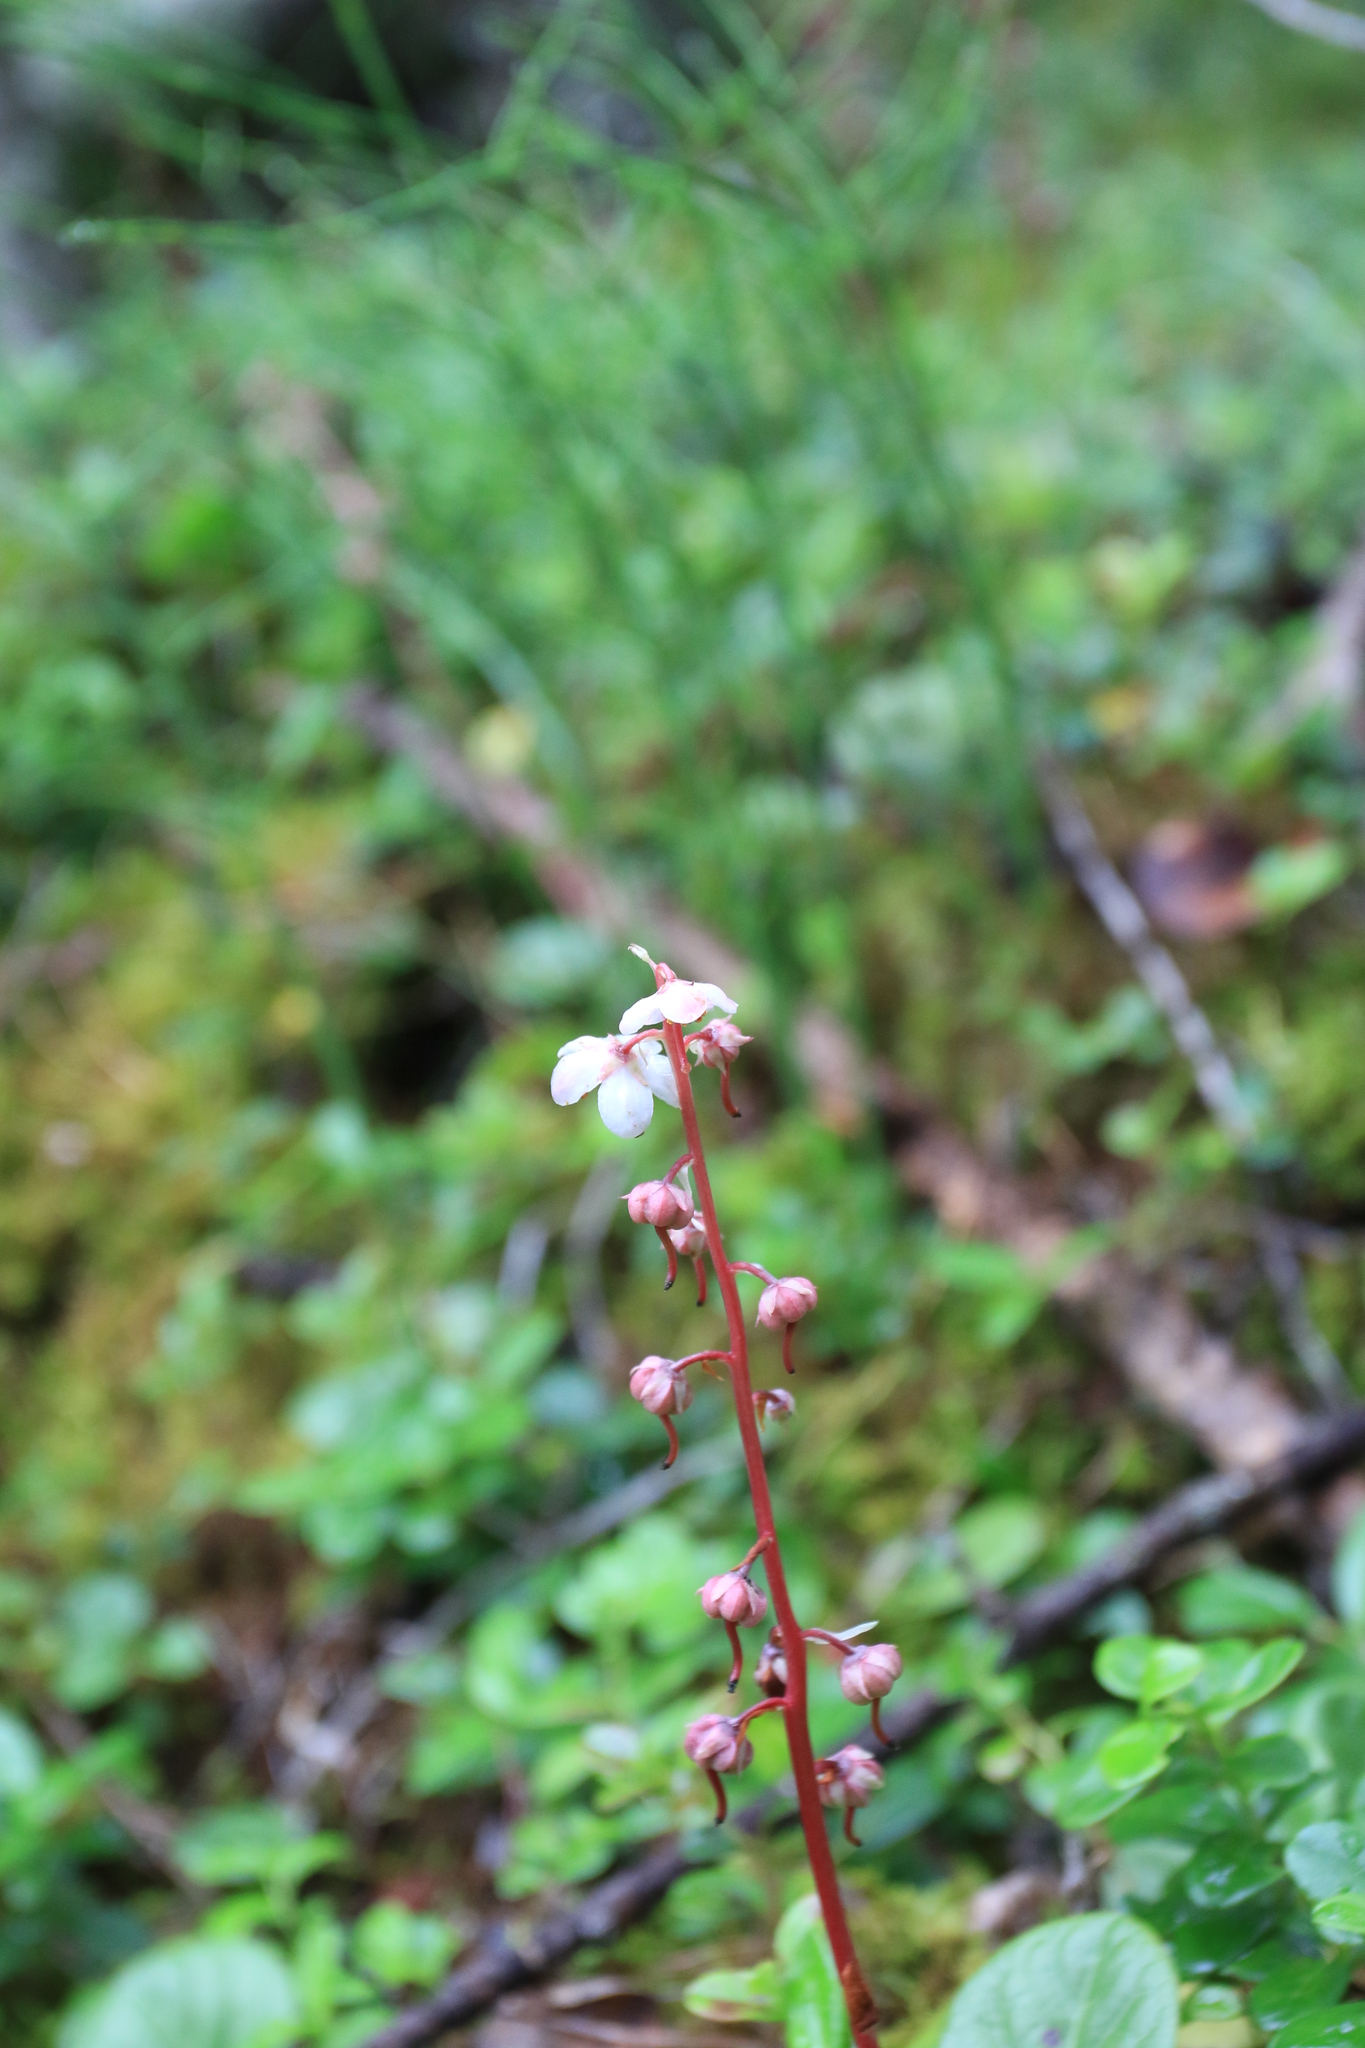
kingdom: Plantae
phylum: Tracheophyta
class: Magnoliopsida
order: Ericales
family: Ericaceae
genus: Pyrola
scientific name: Pyrola asarifolia
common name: Bog wintergreen
